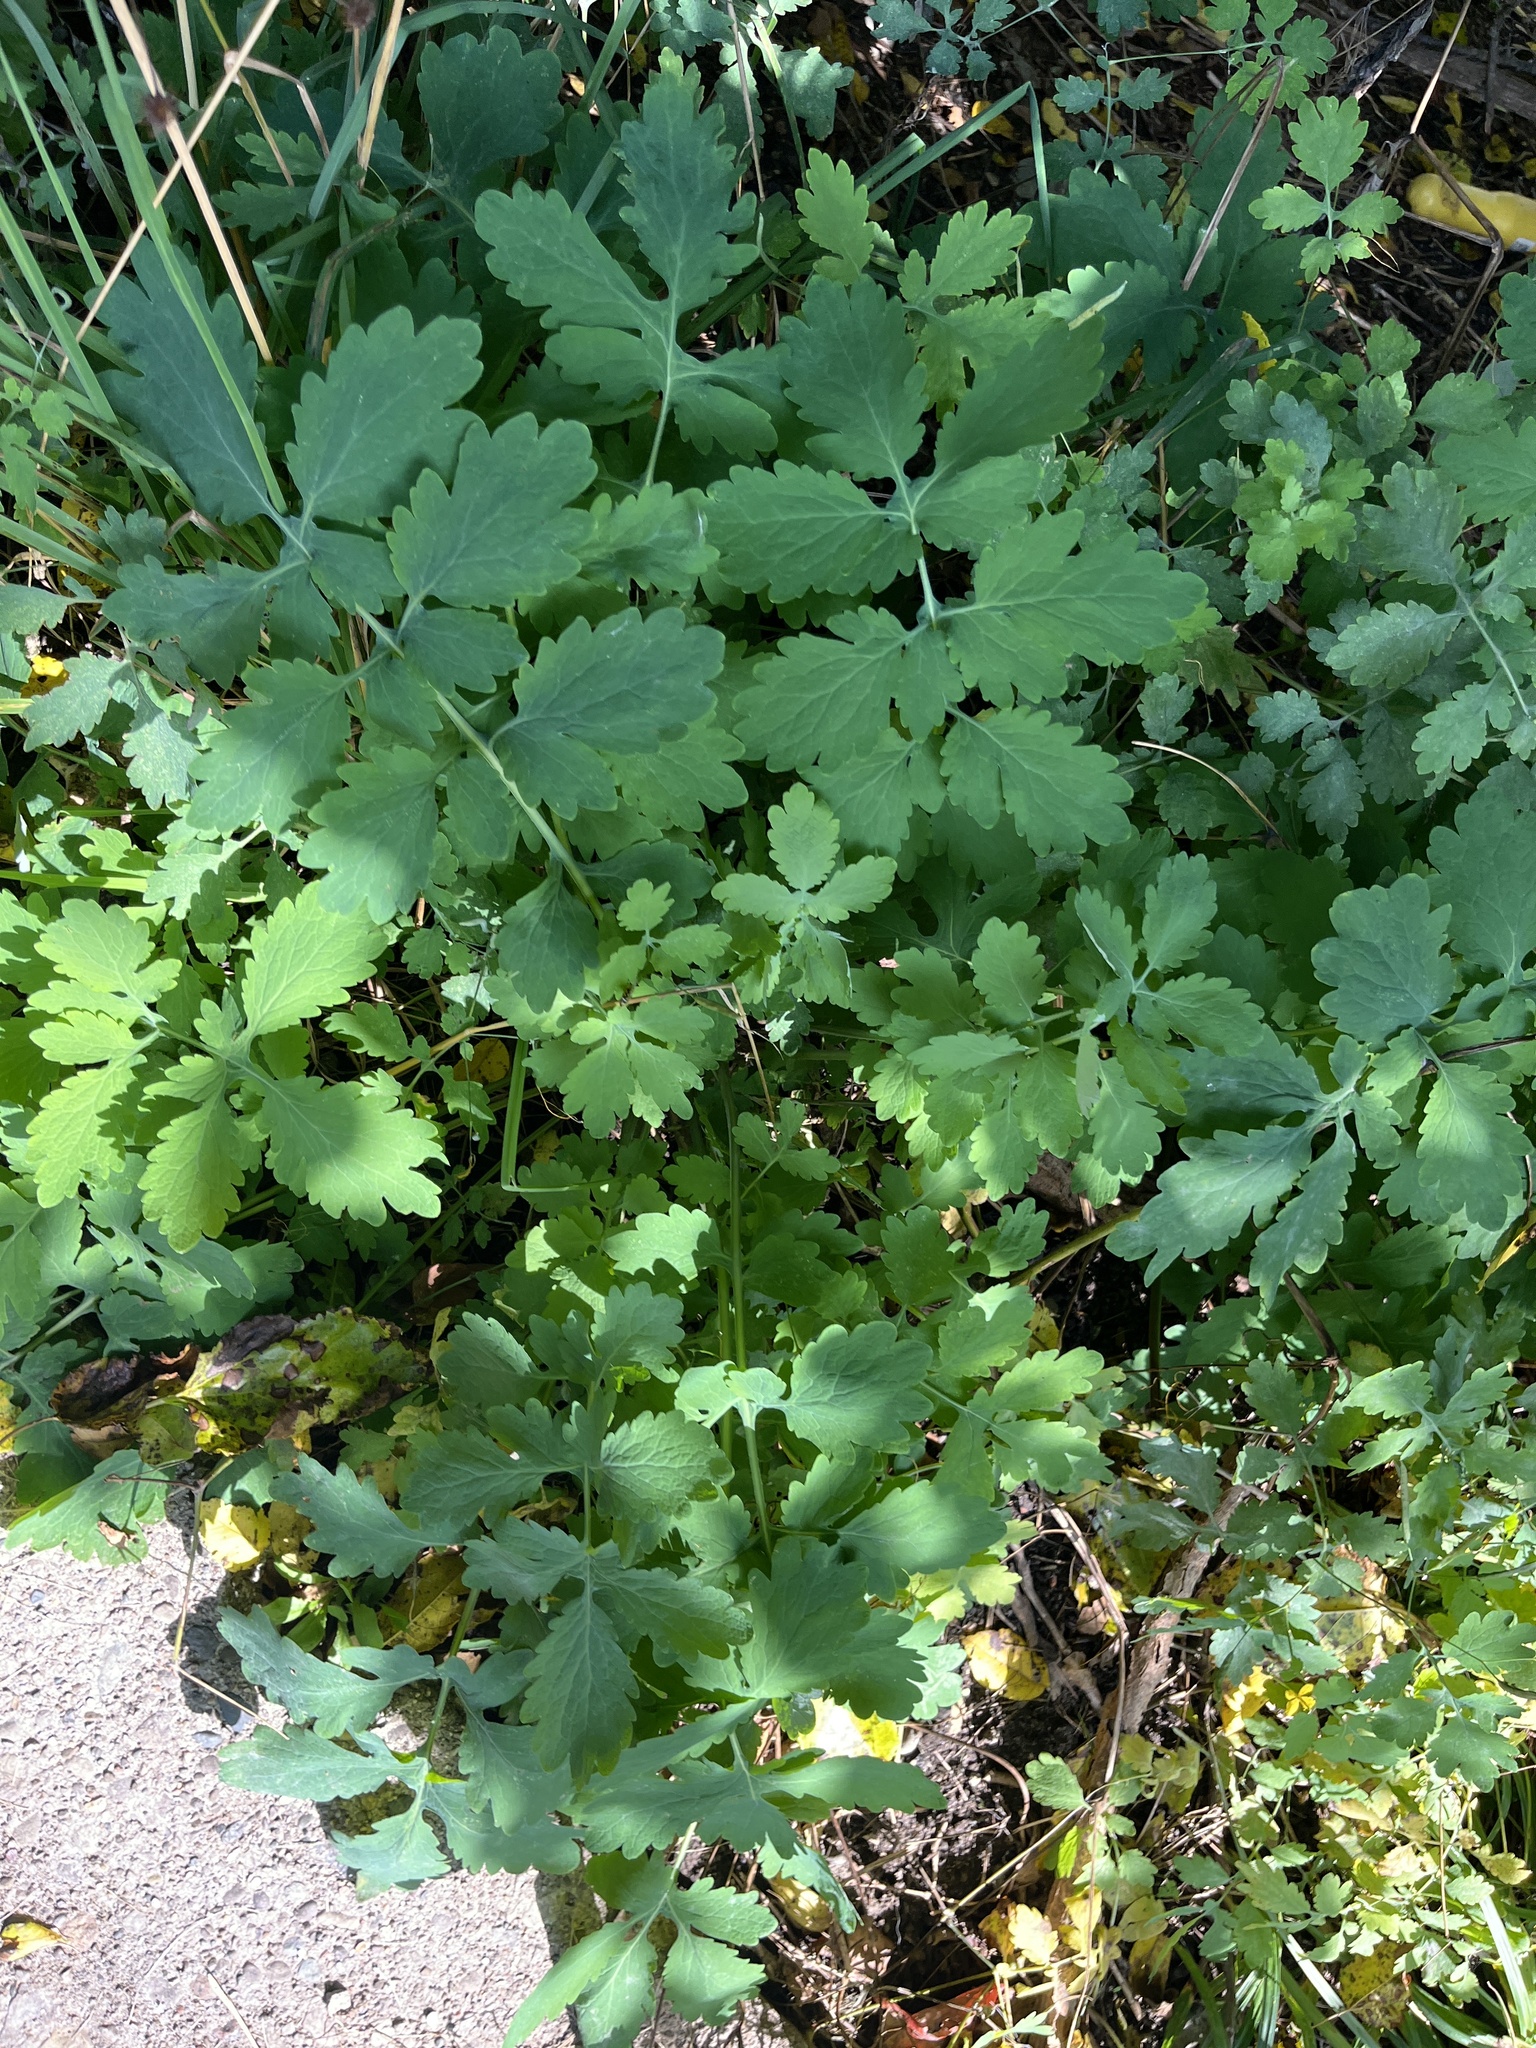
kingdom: Plantae
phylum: Tracheophyta
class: Magnoliopsida
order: Ranunculales
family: Papaveraceae
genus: Chelidonium
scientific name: Chelidonium majus
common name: Greater celandine
